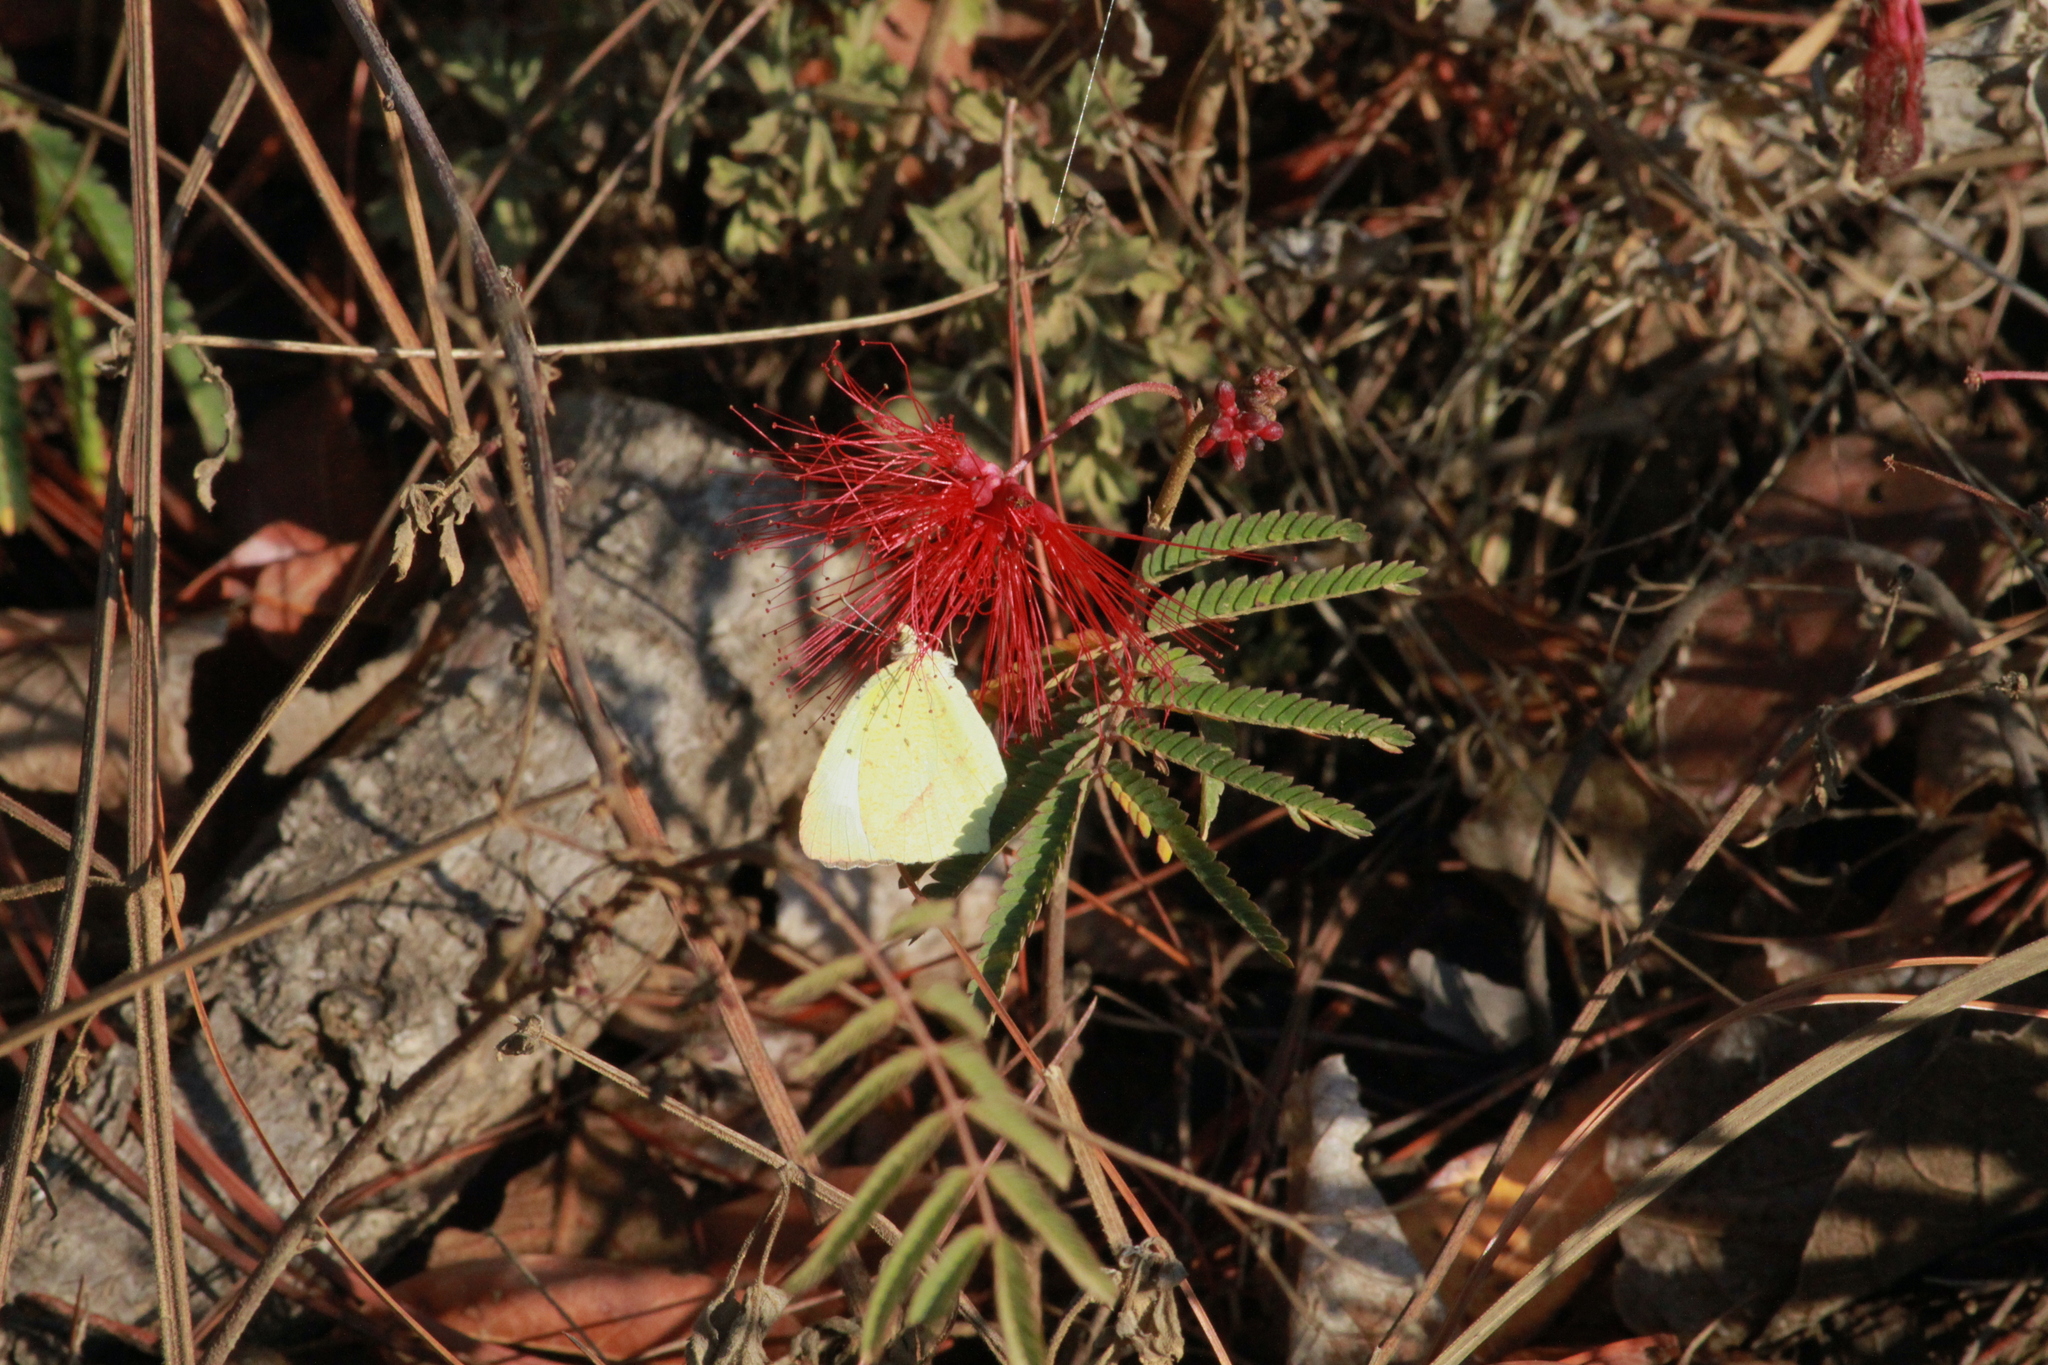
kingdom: Animalia
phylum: Arthropoda
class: Insecta
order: Lepidoptera
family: Pieridae
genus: Abaeis
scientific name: Abaeis mexicana
